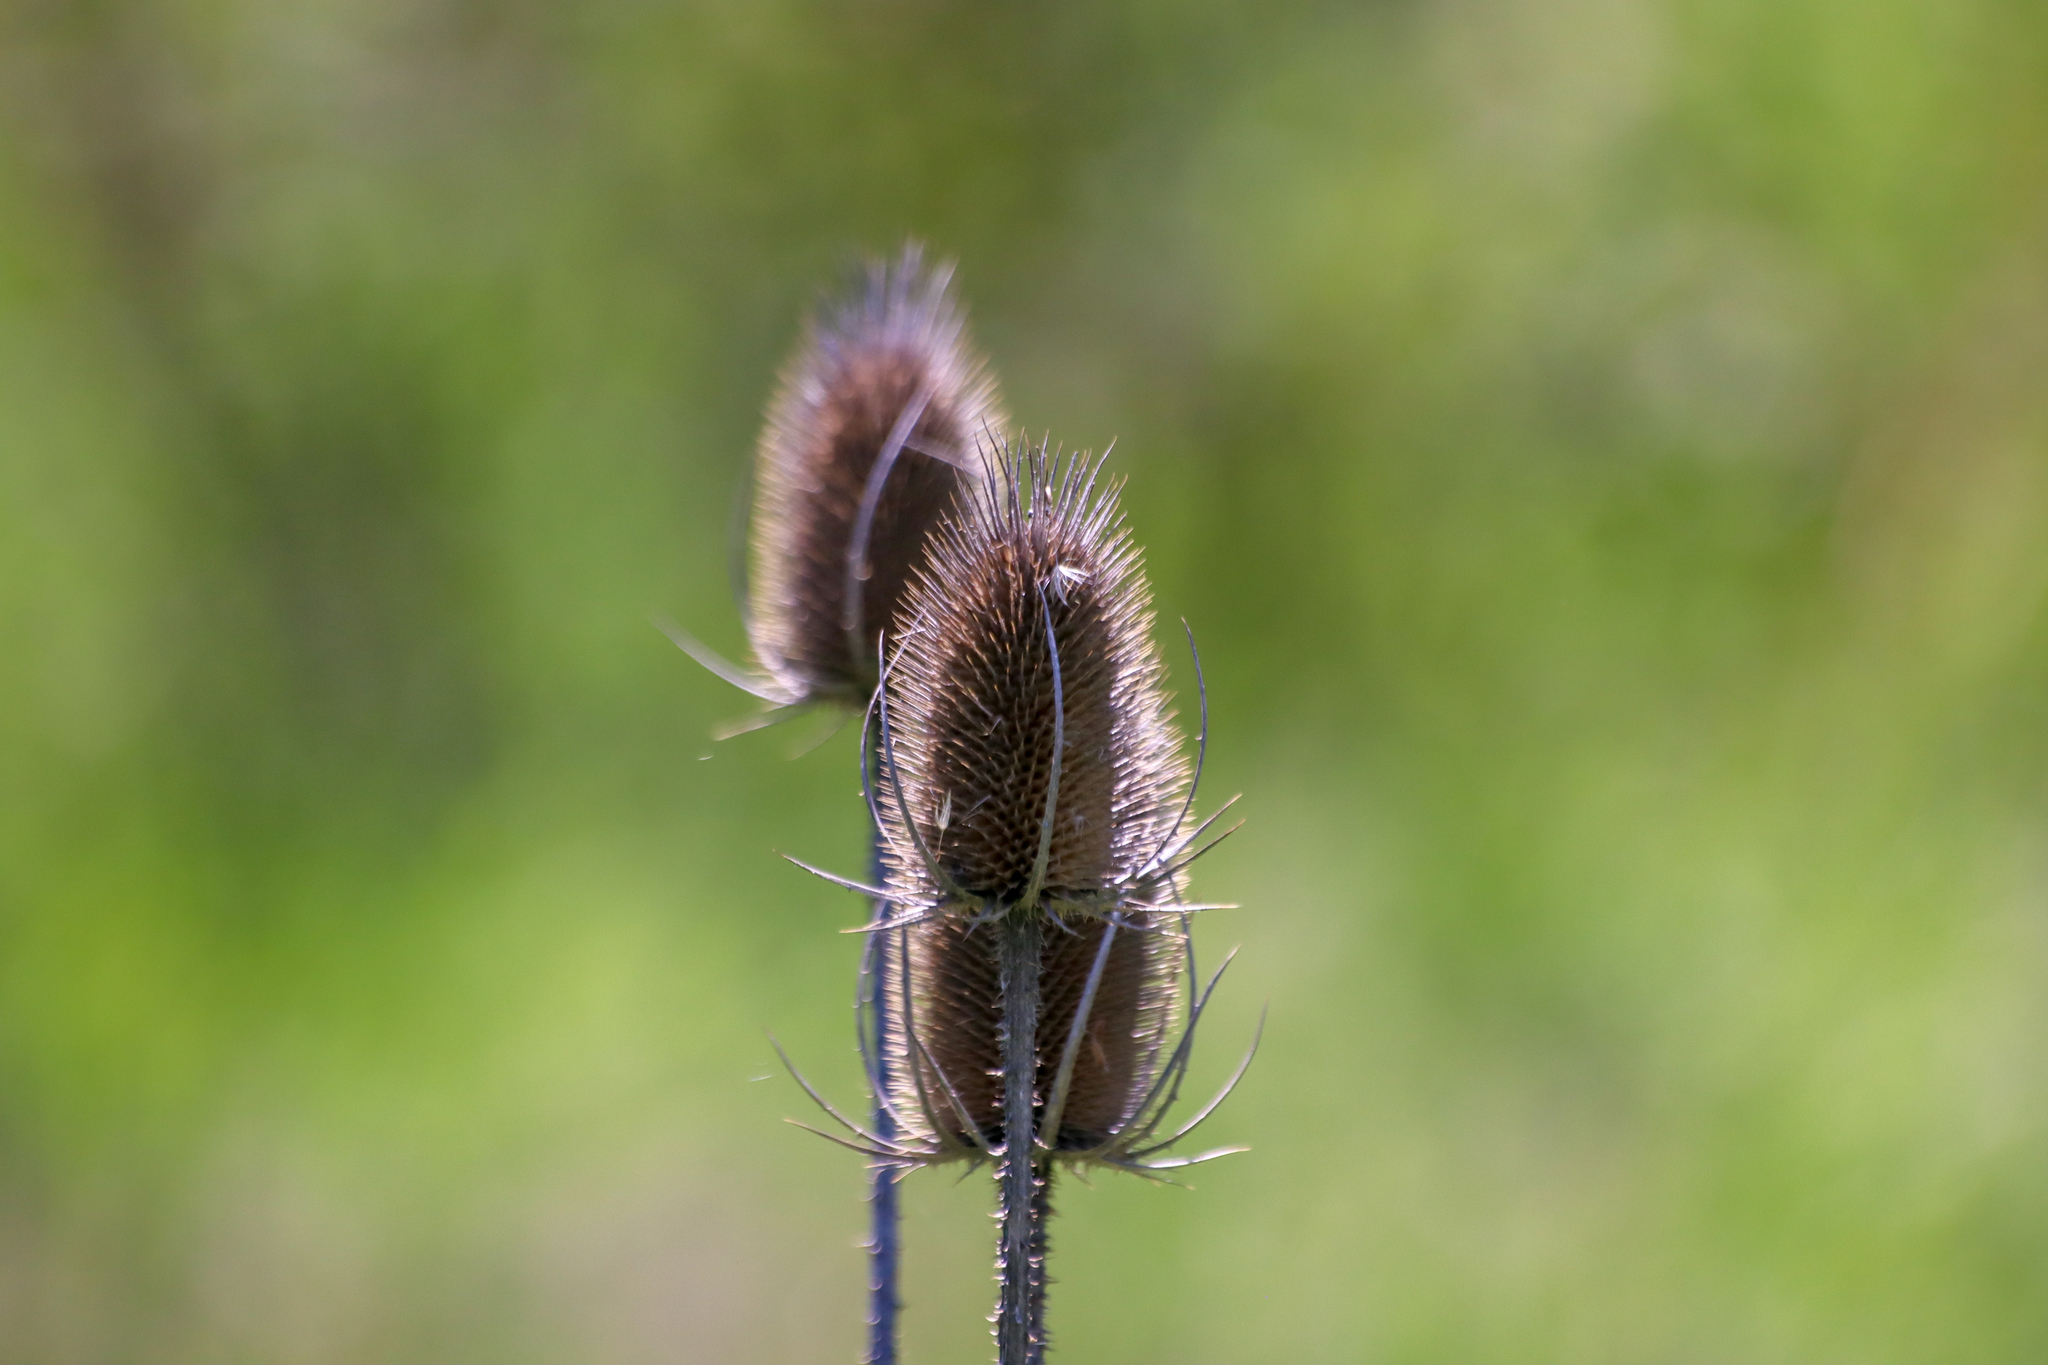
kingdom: Plantae
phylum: Tracheophyta
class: Magnoliopsida
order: Dipsacales
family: Caprifoliaceae
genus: Dipsacus
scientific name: Dipsacus fullonum
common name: Teasel
